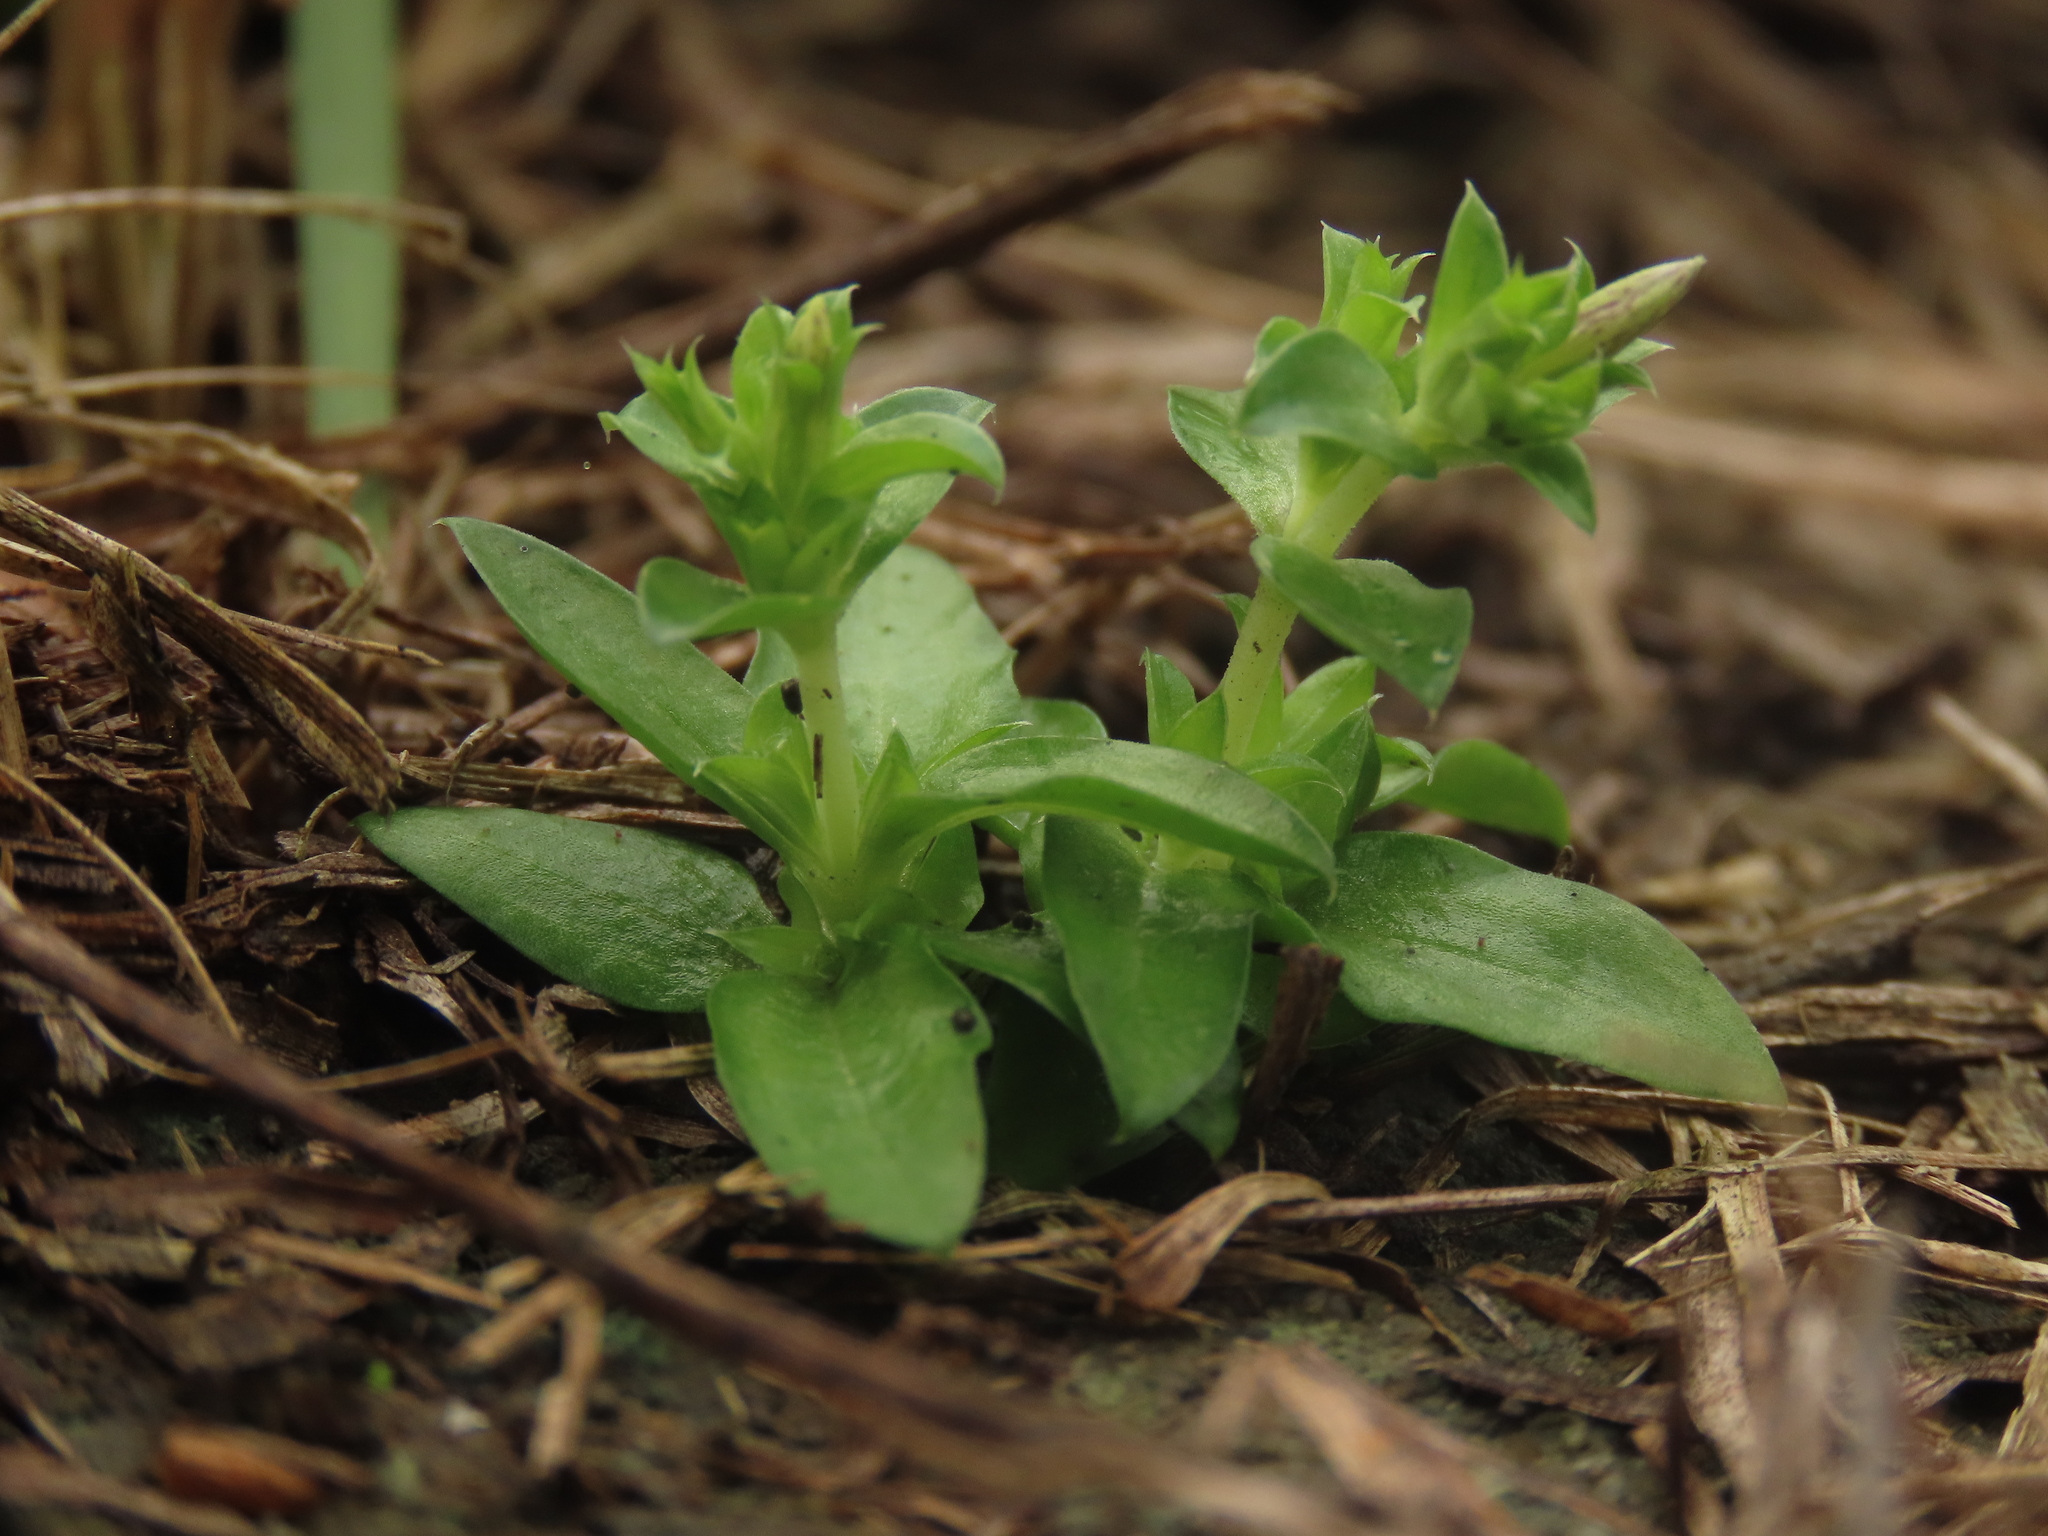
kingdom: Plantae
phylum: Tracheophyta
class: Magnoliopsida
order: Gentianales
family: Gentianaceae
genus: Gentiana
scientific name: Gentiana yokusai
